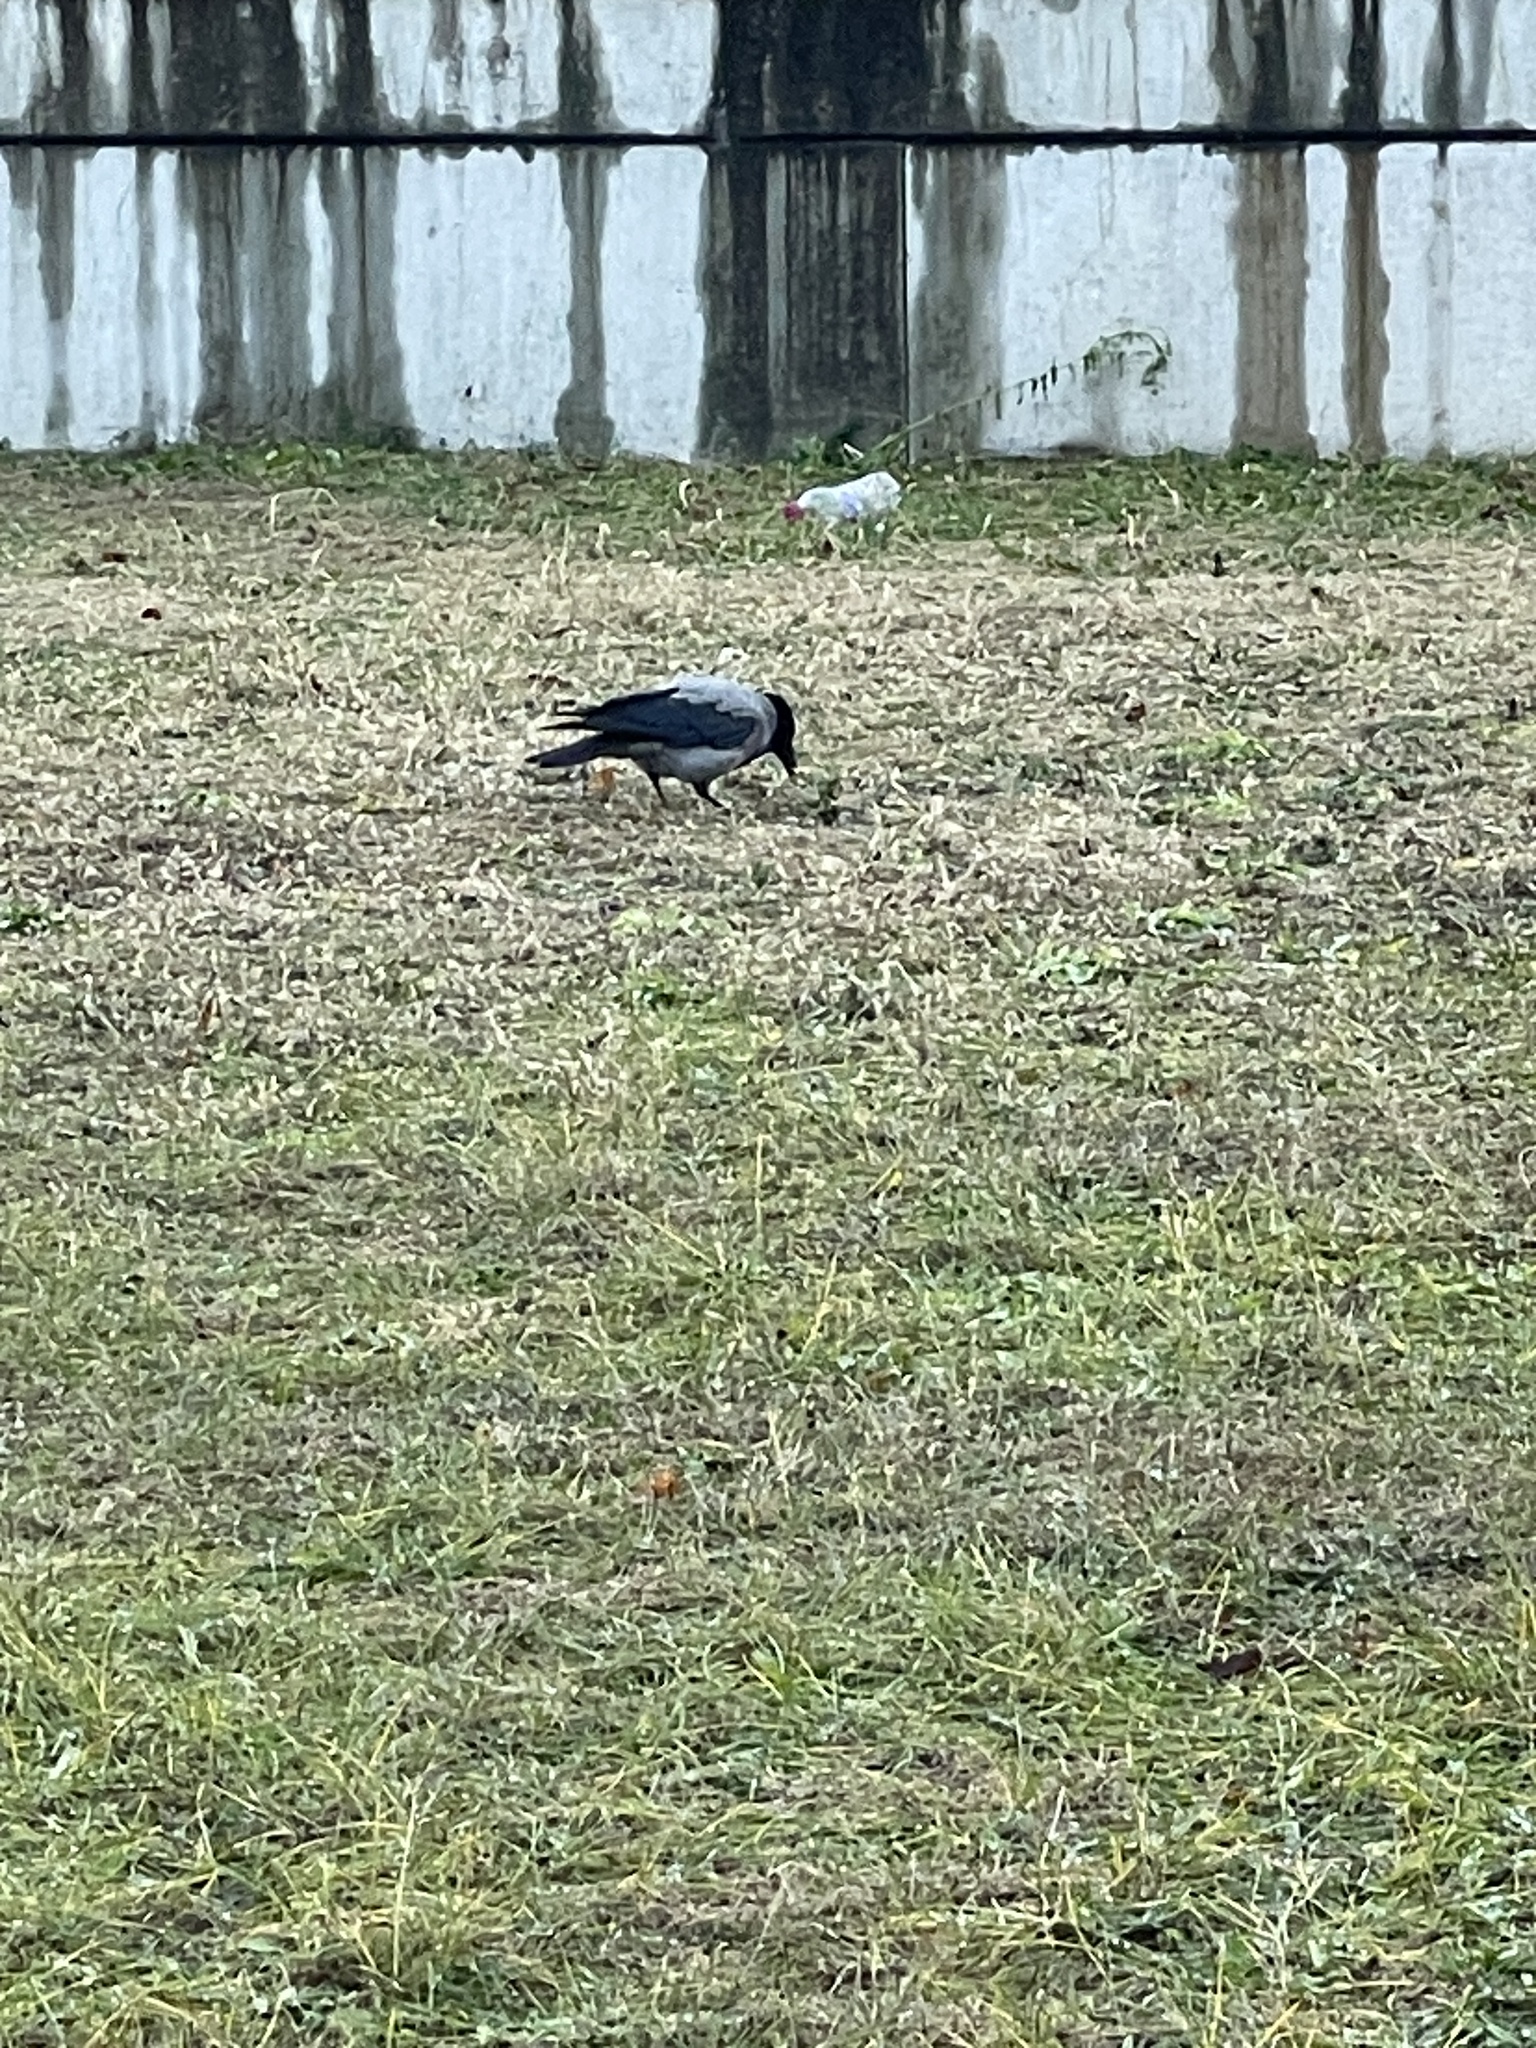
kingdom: Animalia
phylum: Chordata
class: Aves
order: Passeriformes
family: Corvidae
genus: Corvus
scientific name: Corvus cornix
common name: Hooded crow
